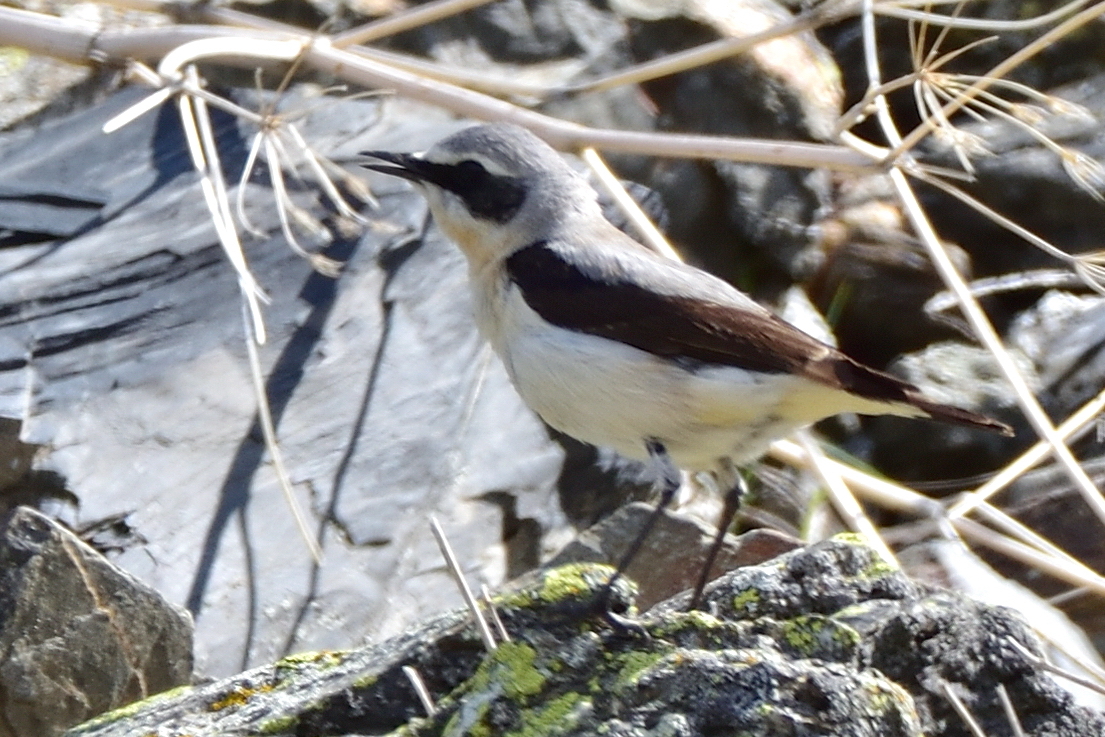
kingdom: Animalia
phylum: Chordata
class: Aves
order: Passeriformes
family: Muscicapidae
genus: Oenanthe
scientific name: Oenanthe oenanthe
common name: Northern wheatear
